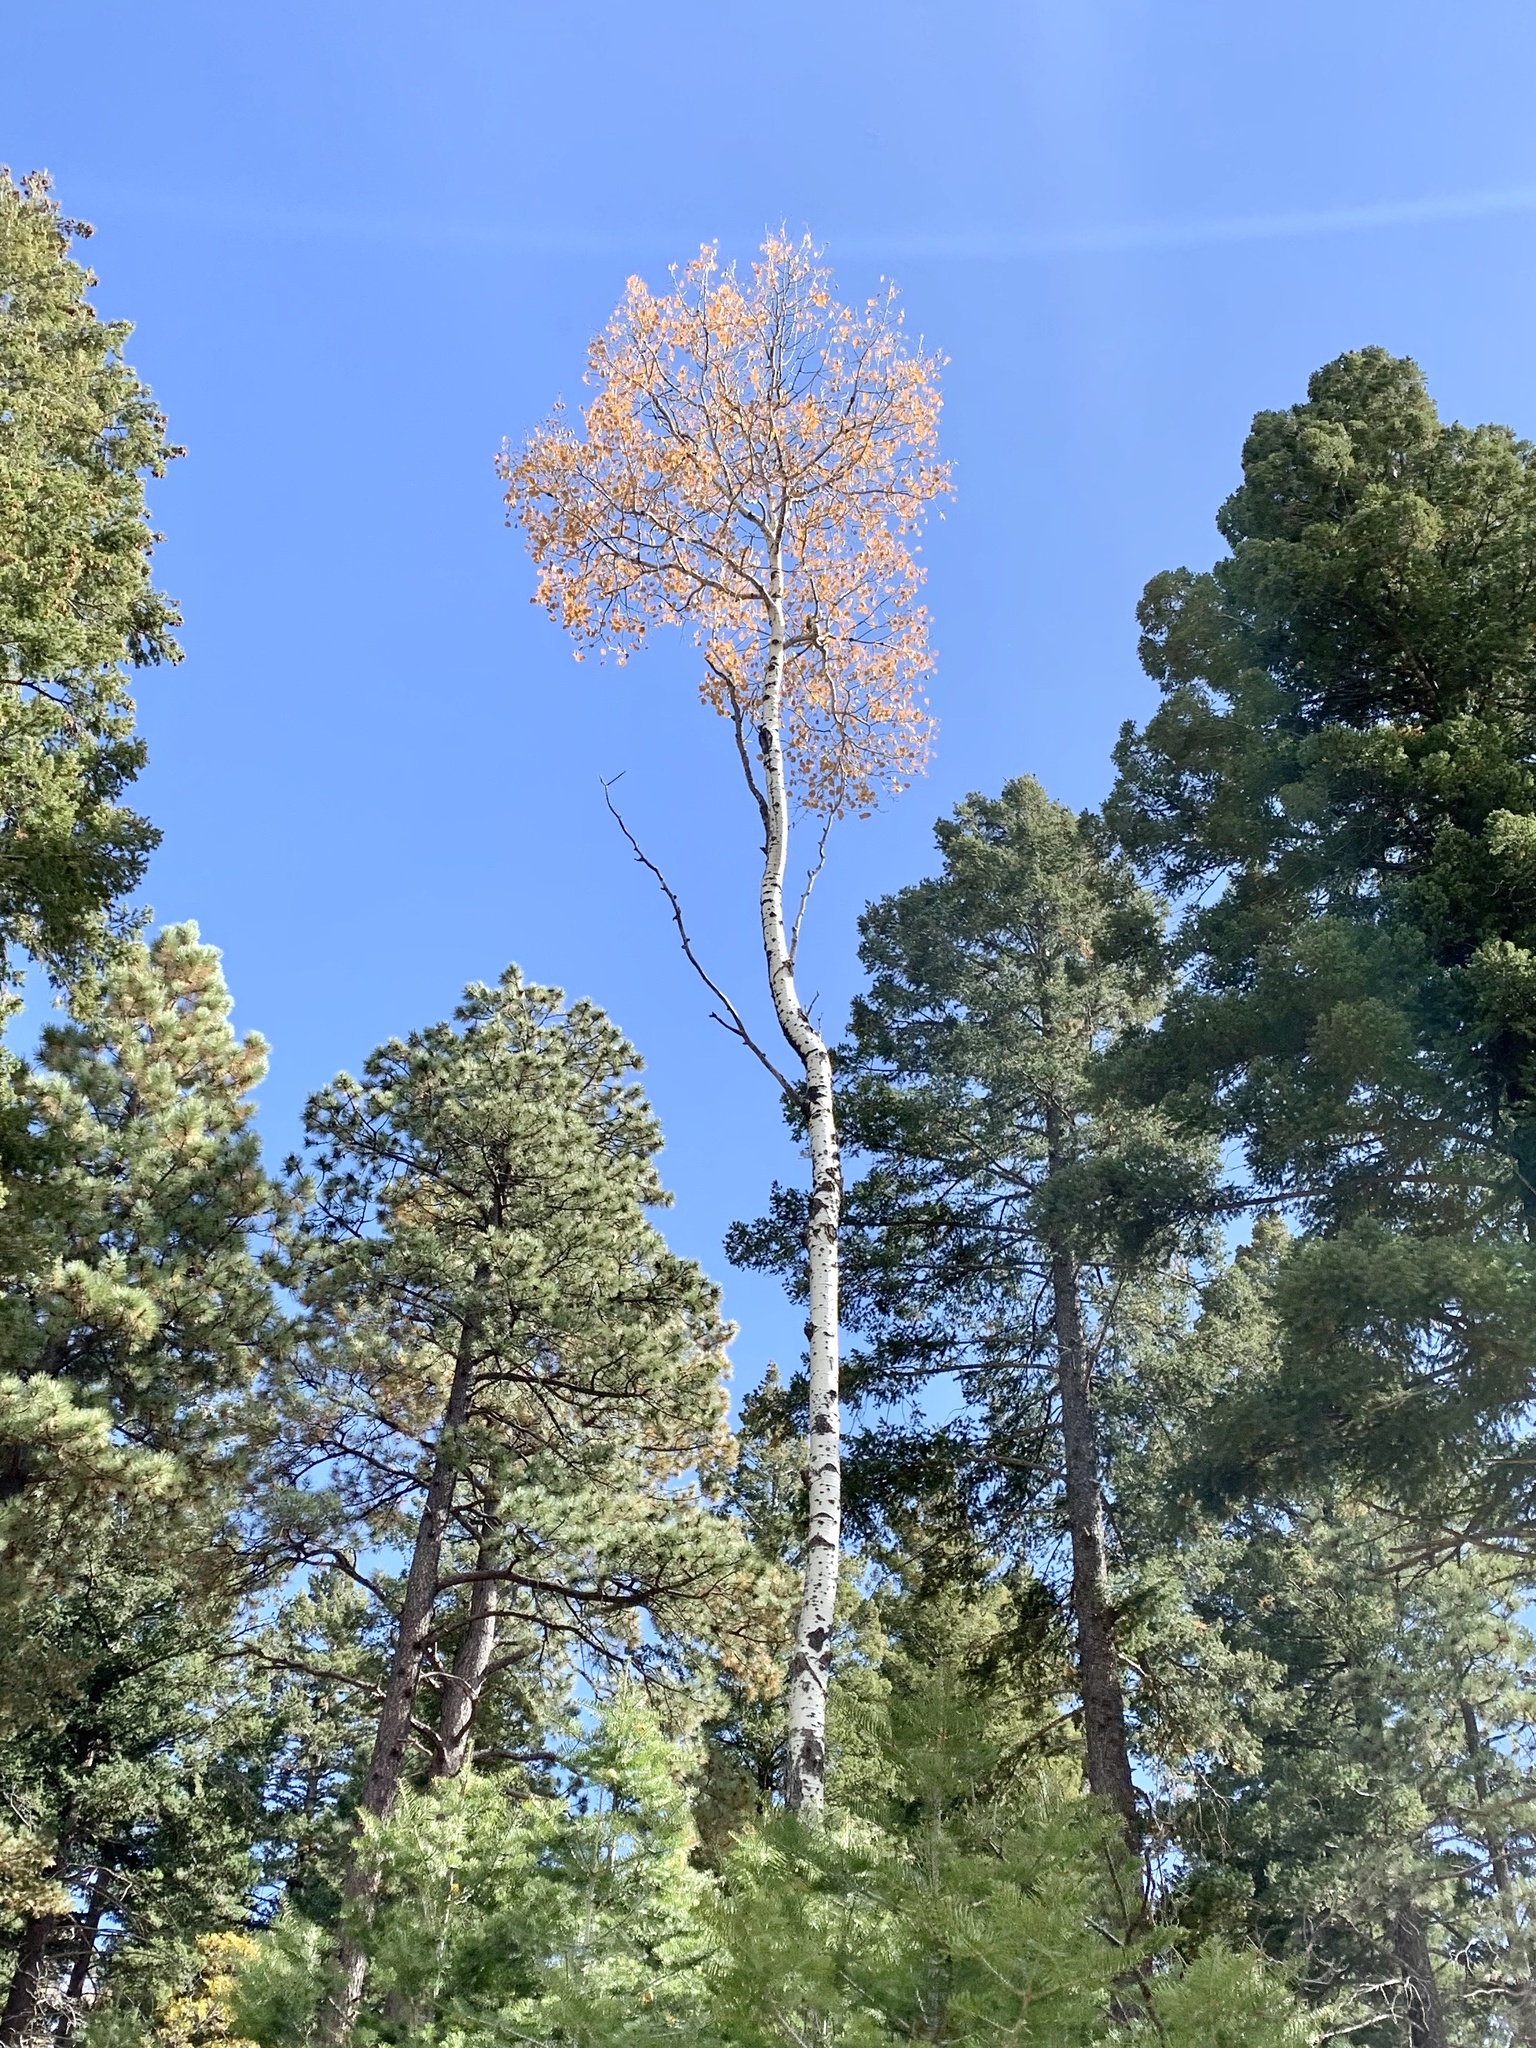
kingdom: Plantae
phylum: Tracheophyta
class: Magnoliopsida
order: Malpighiales
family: Salicaceae
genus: Populus
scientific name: Populus tremuloides
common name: Quaking aspen
